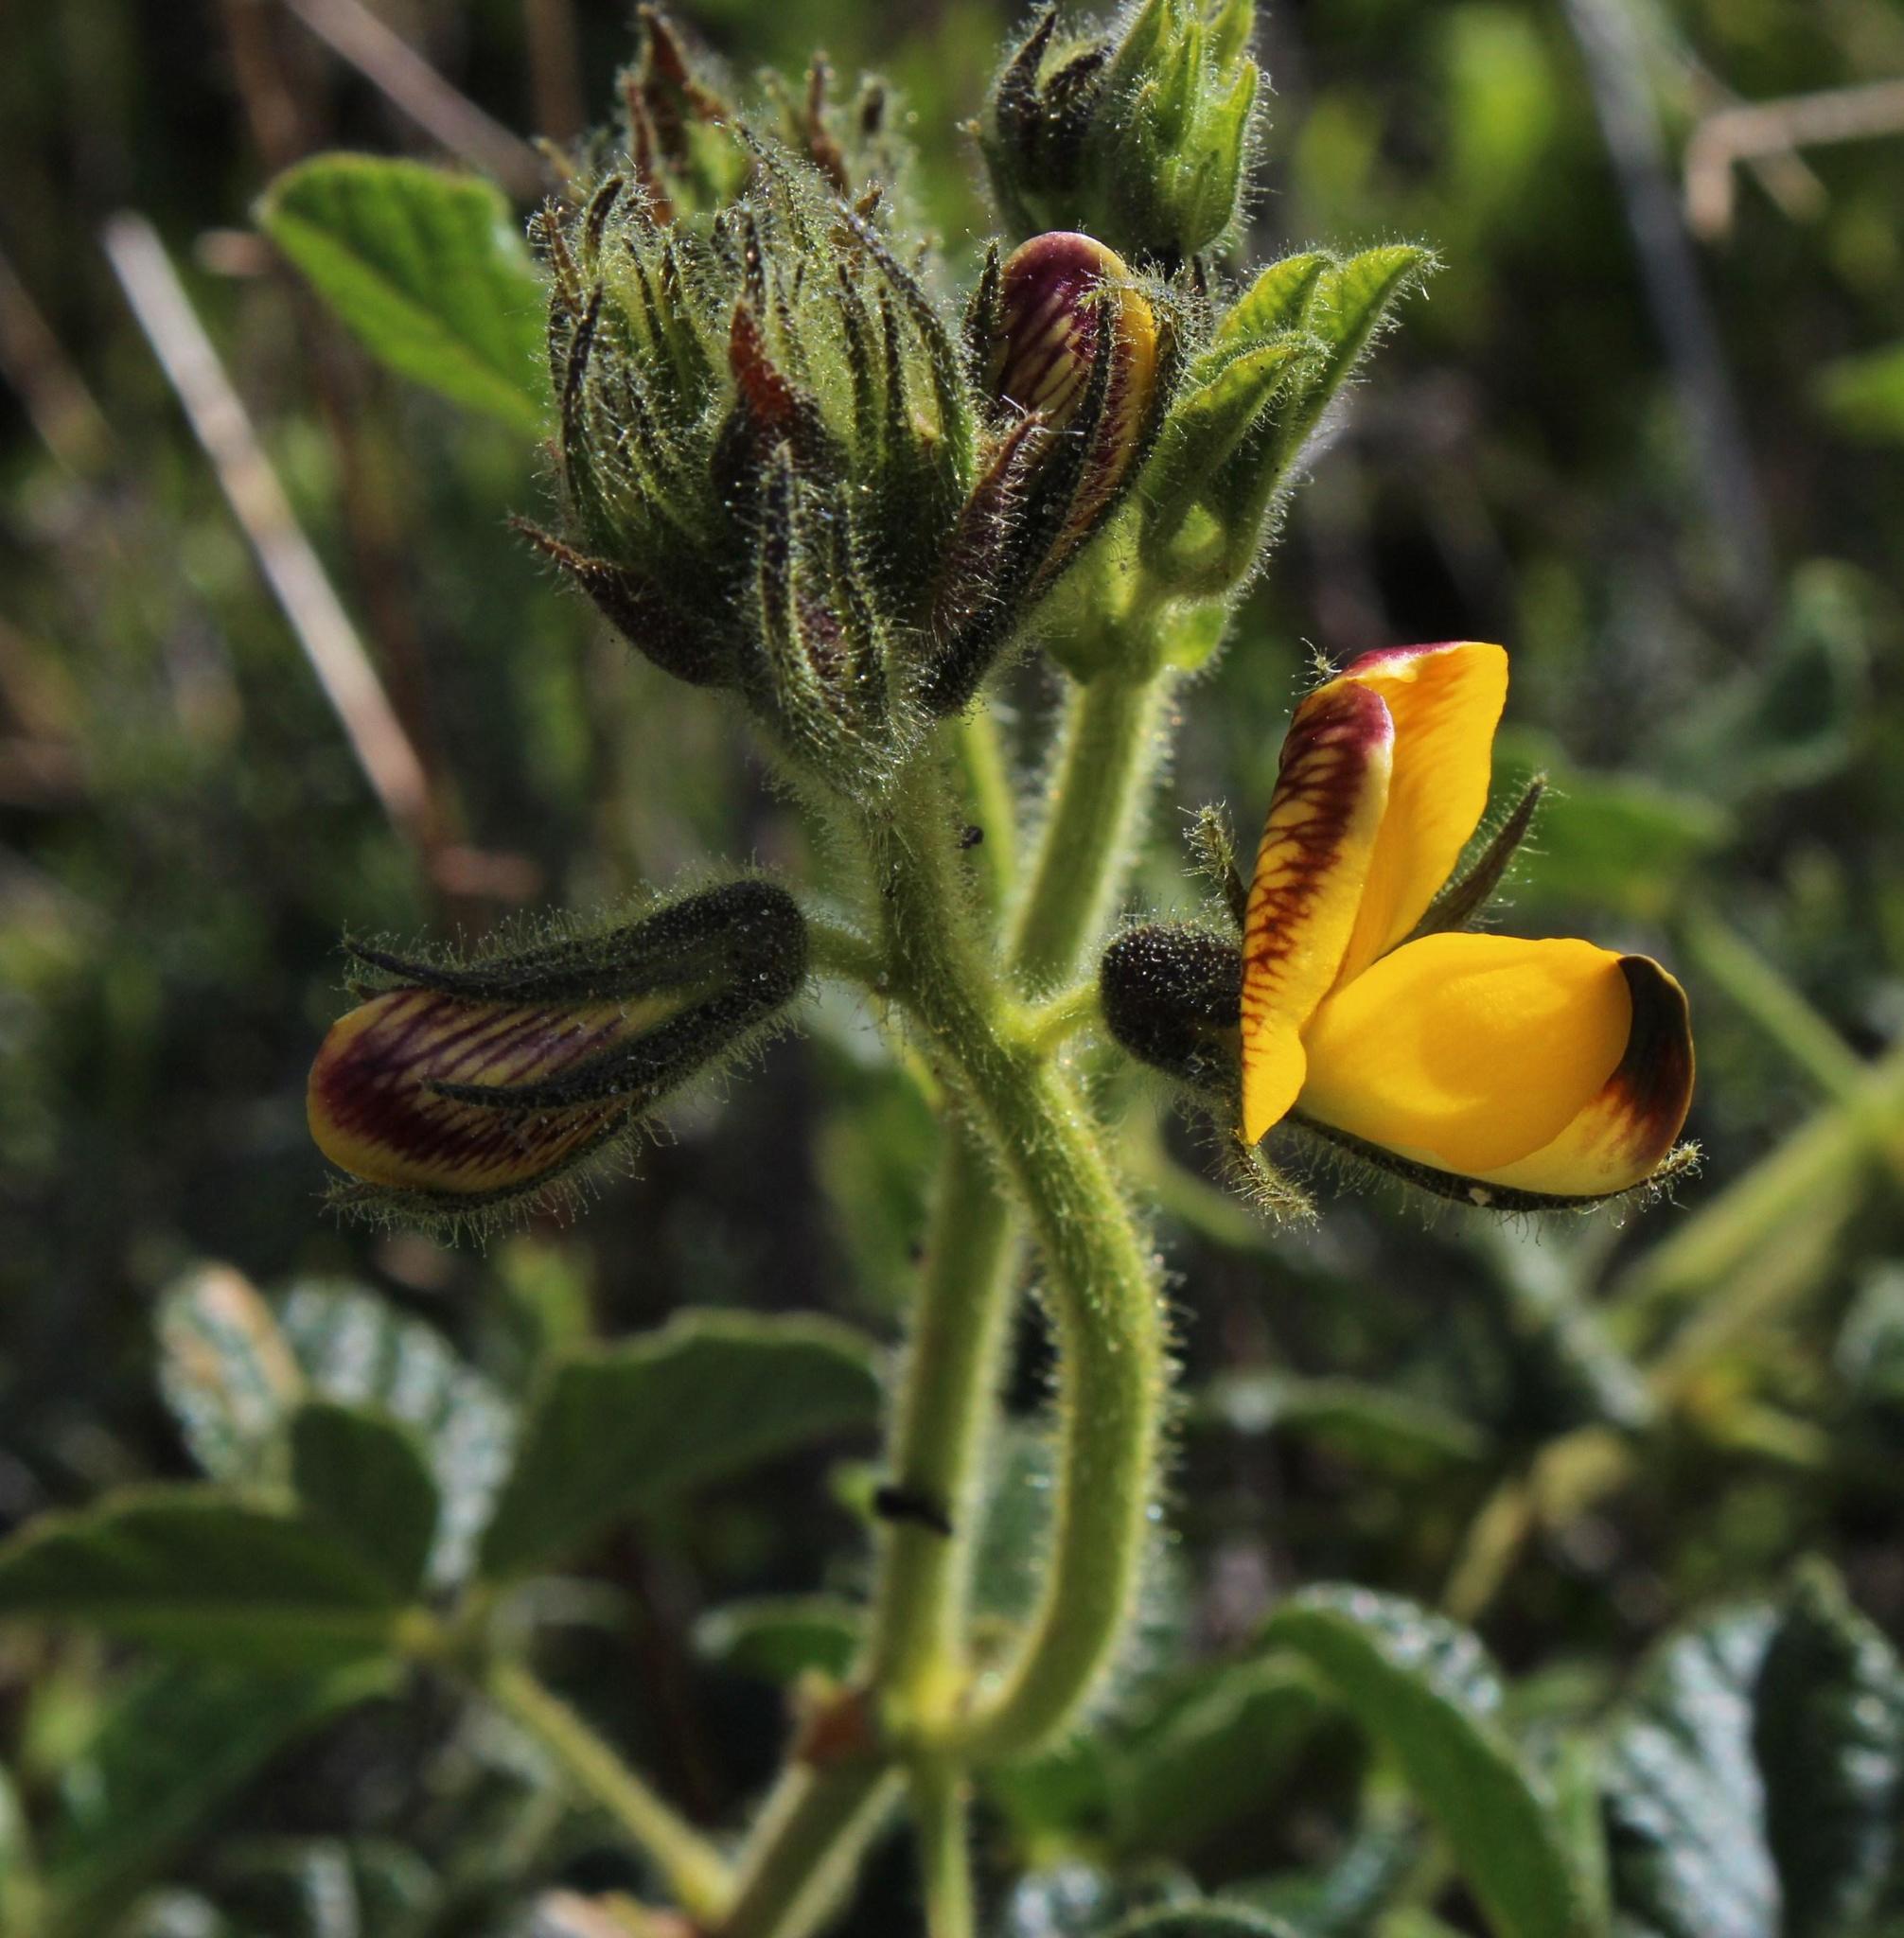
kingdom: Plantae
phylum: Tracheophyta
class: Magnoliopsida
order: Fabales
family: Fabaceae
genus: Bolusafra
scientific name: Bolusafra bituminosa
